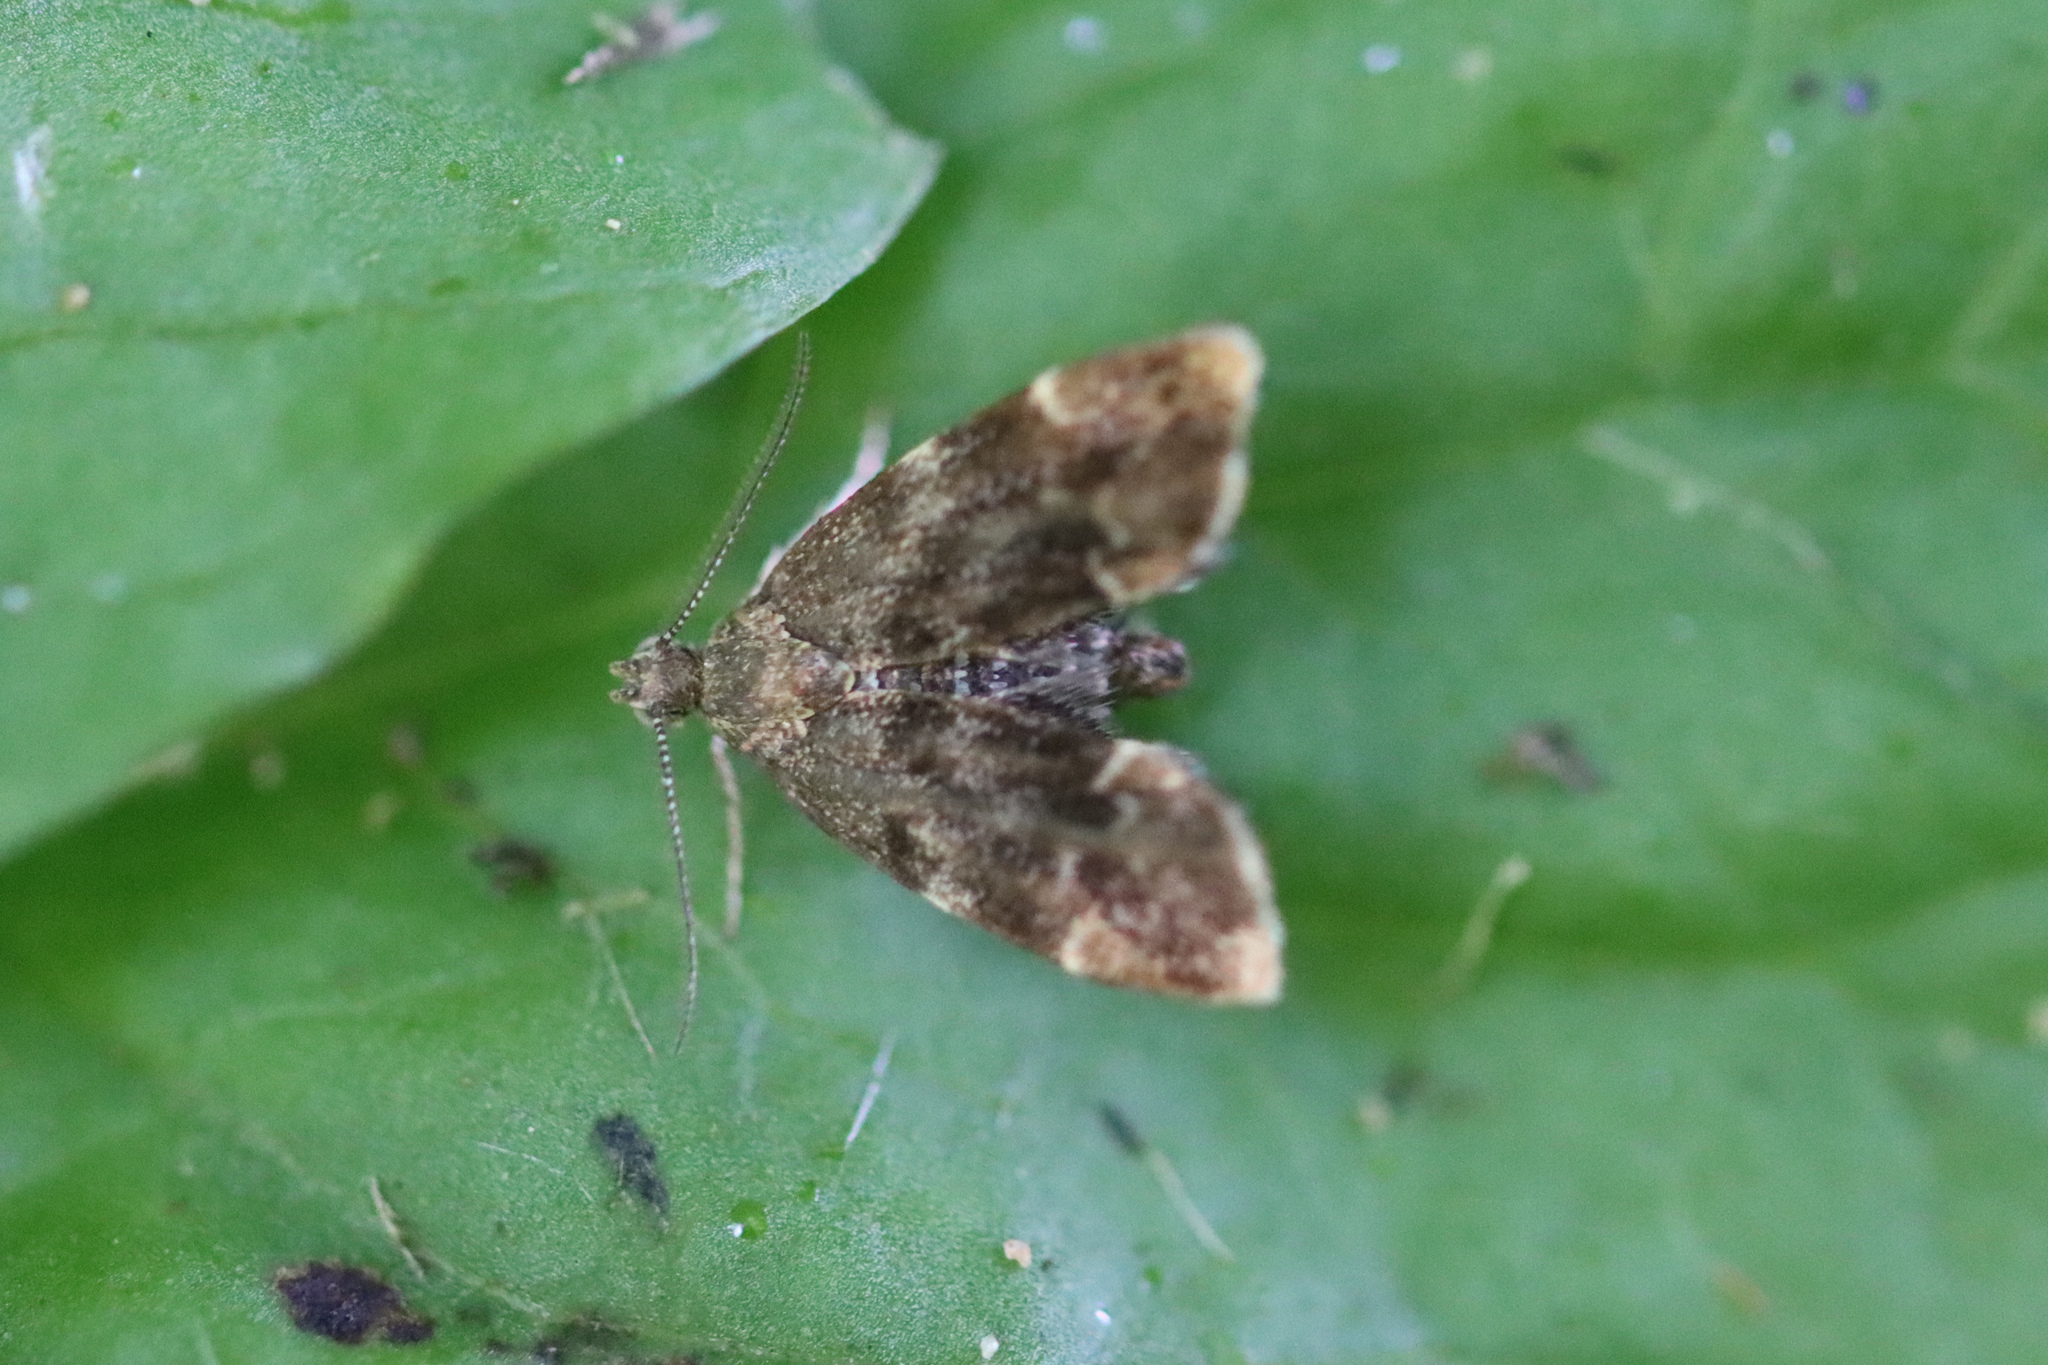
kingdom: Animalia
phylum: Arthropoda
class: Insecta
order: Lepidoptera
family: Choreutidae
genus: Anthophila
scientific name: Anthophila fabriciana
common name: Nettle-tap
